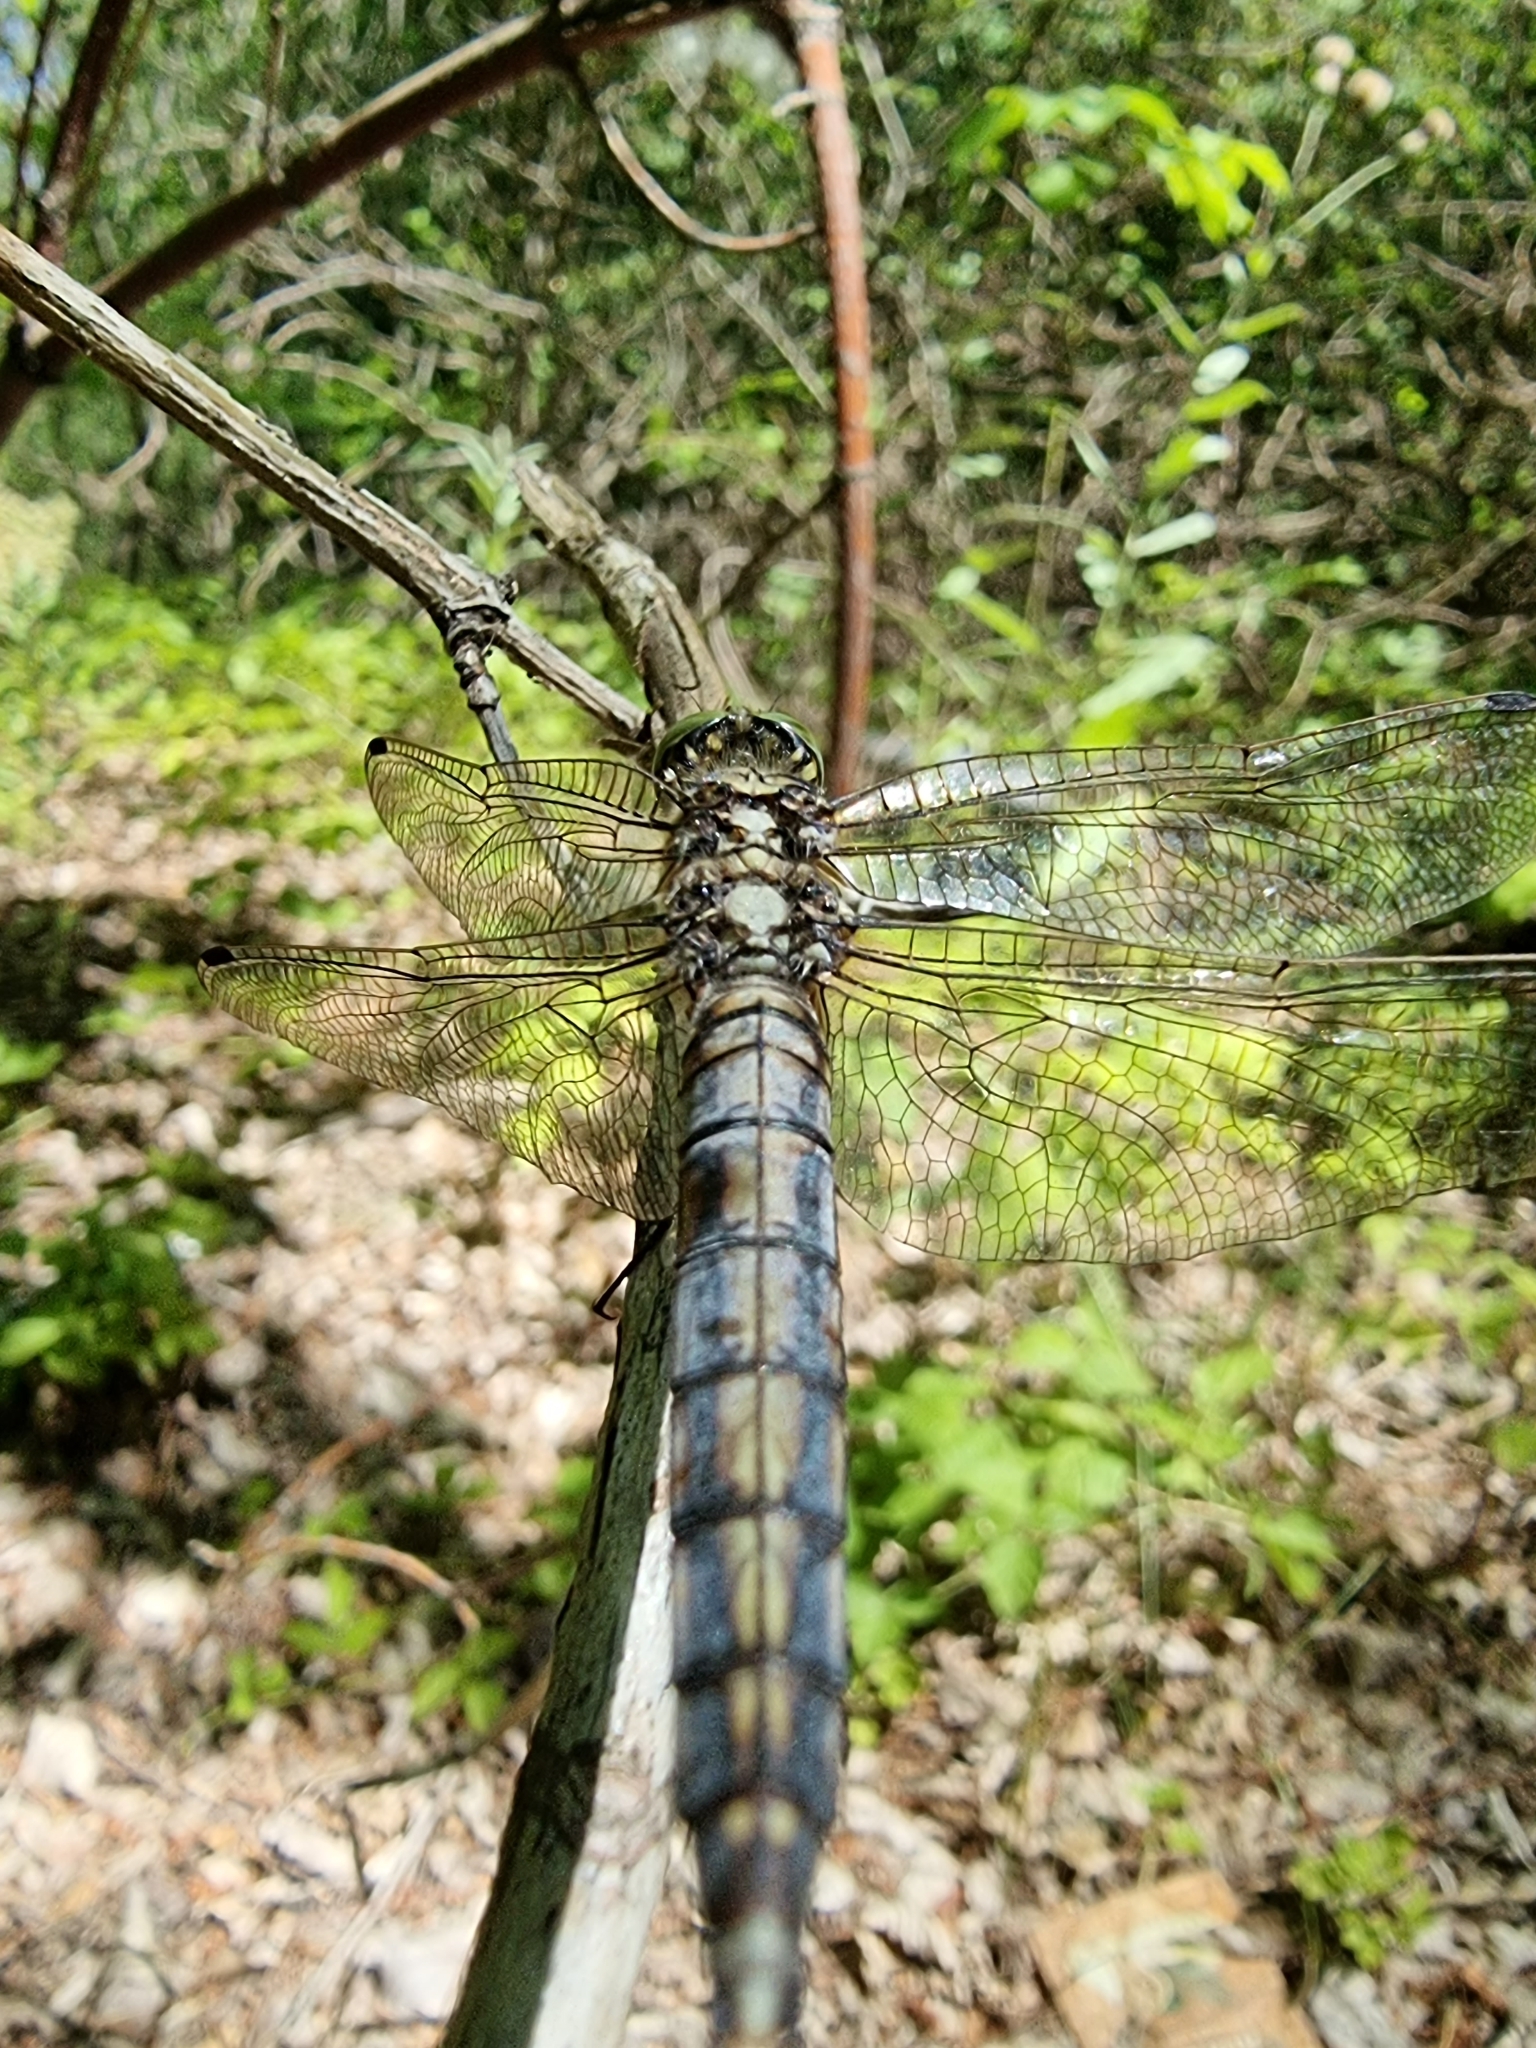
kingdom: Animalia
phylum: Arthropoda
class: Insecta
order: Odonata
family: Libellulidae
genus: Orthetrum
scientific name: Orthetrum cancellatum
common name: Black-tailed skimmer
